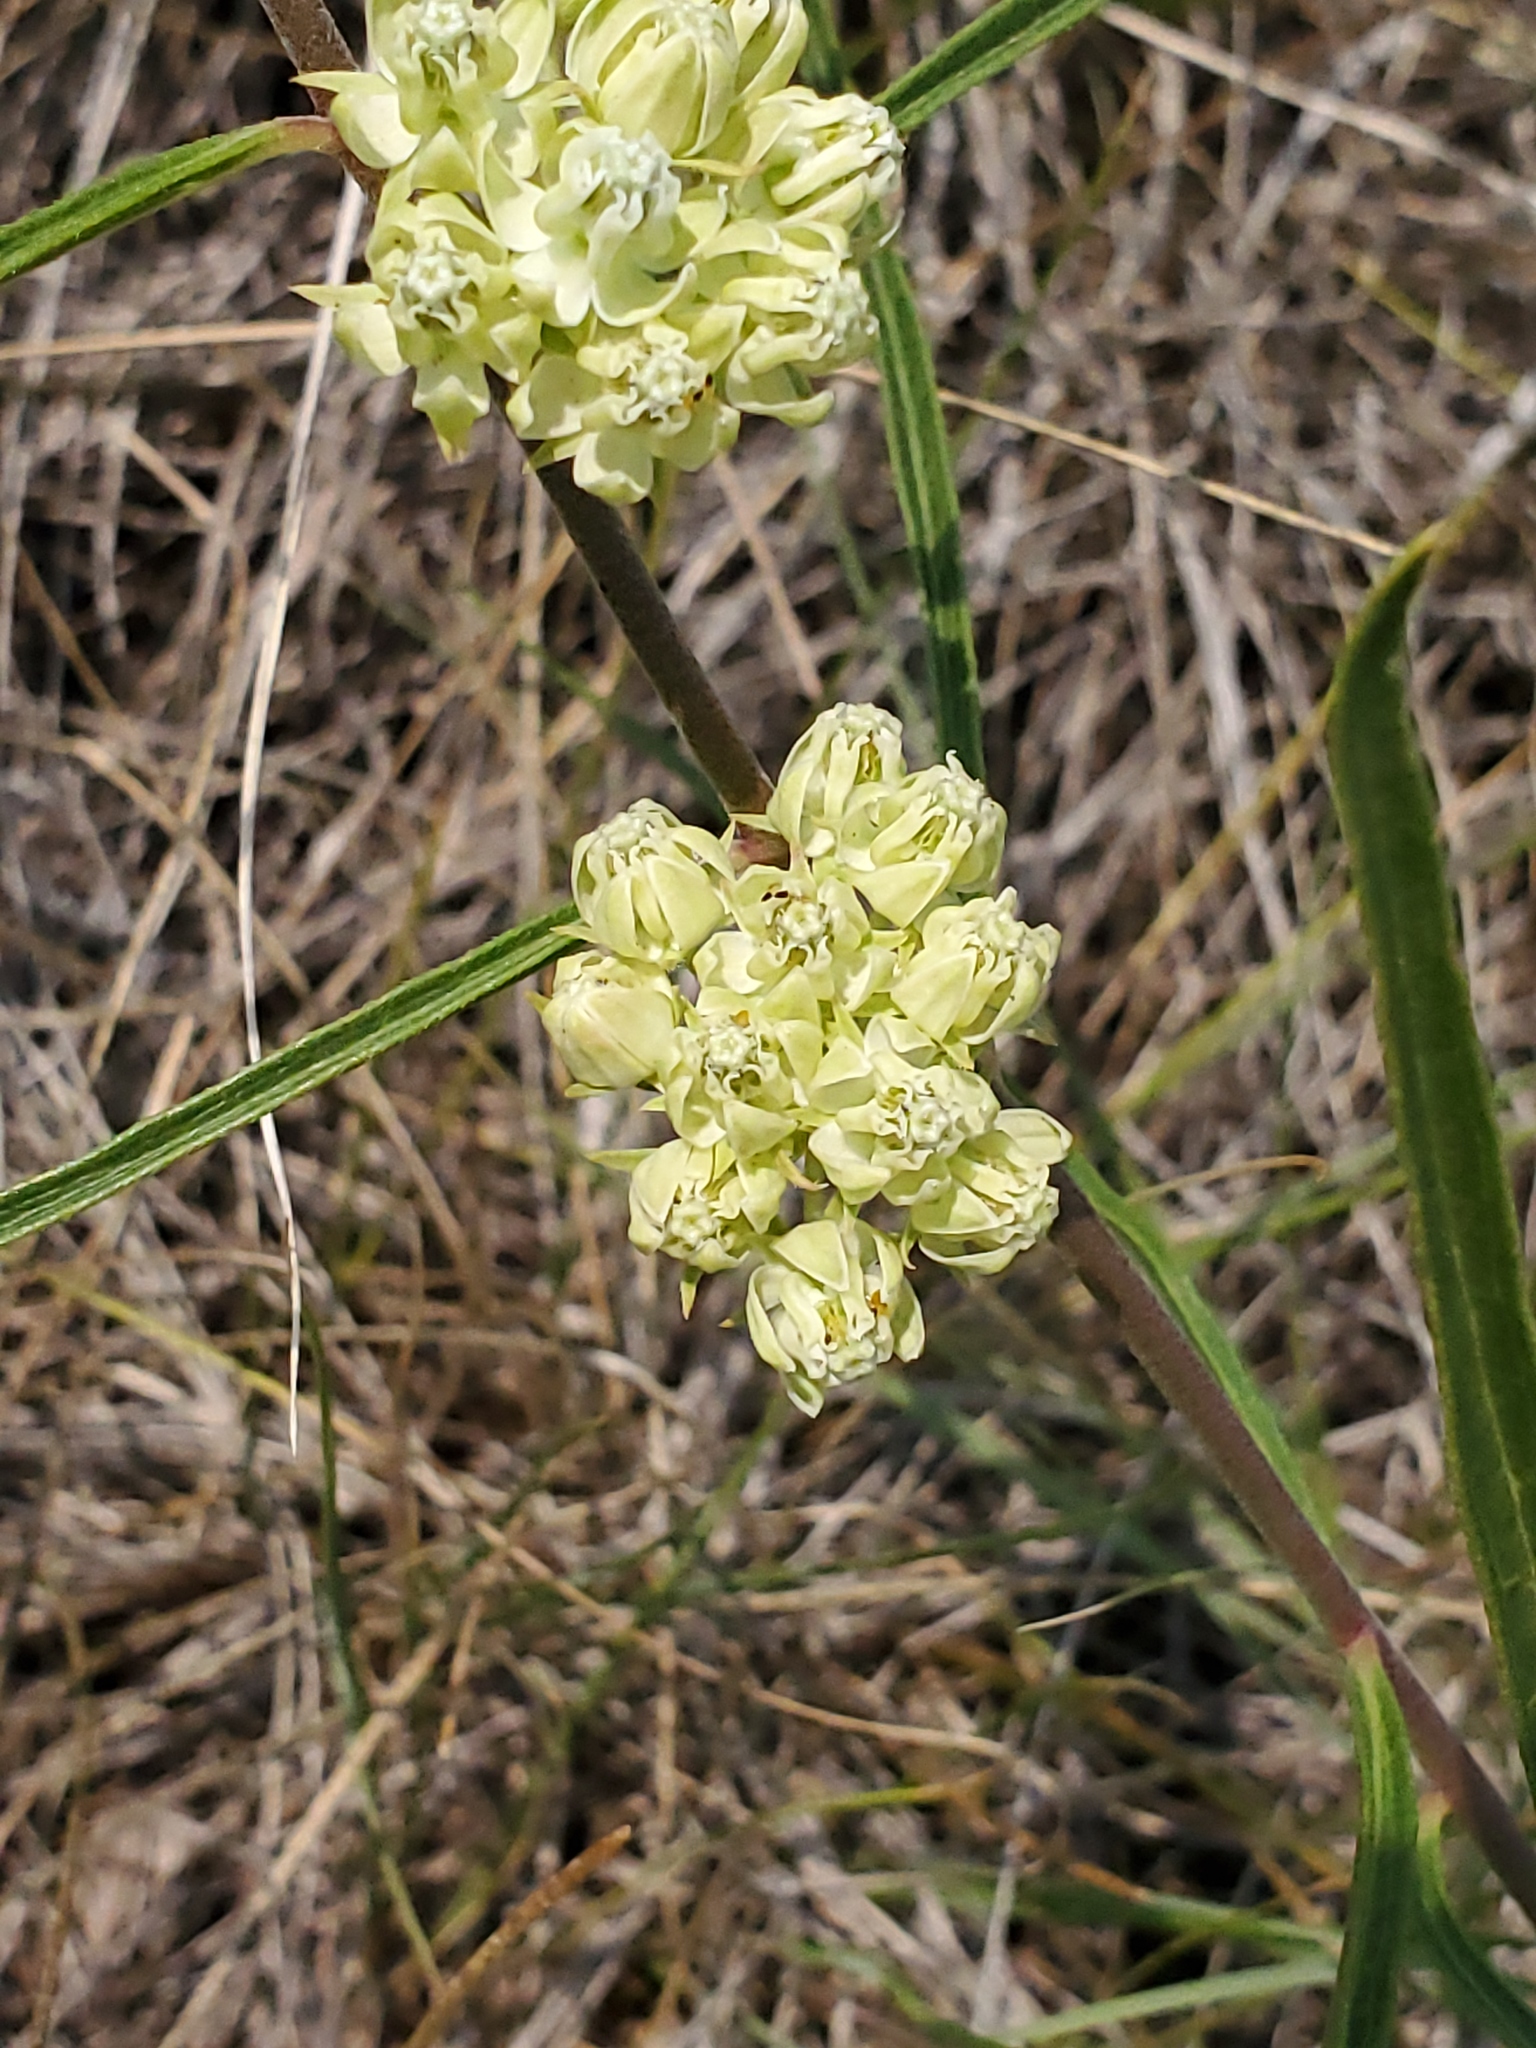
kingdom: Plantae
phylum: Tracheophyta
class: Magnoliopsida
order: Gentianales
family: Apocynaceae
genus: Asclepias
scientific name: Asclepias stenophylla
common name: Narrow-leaf milkweed
